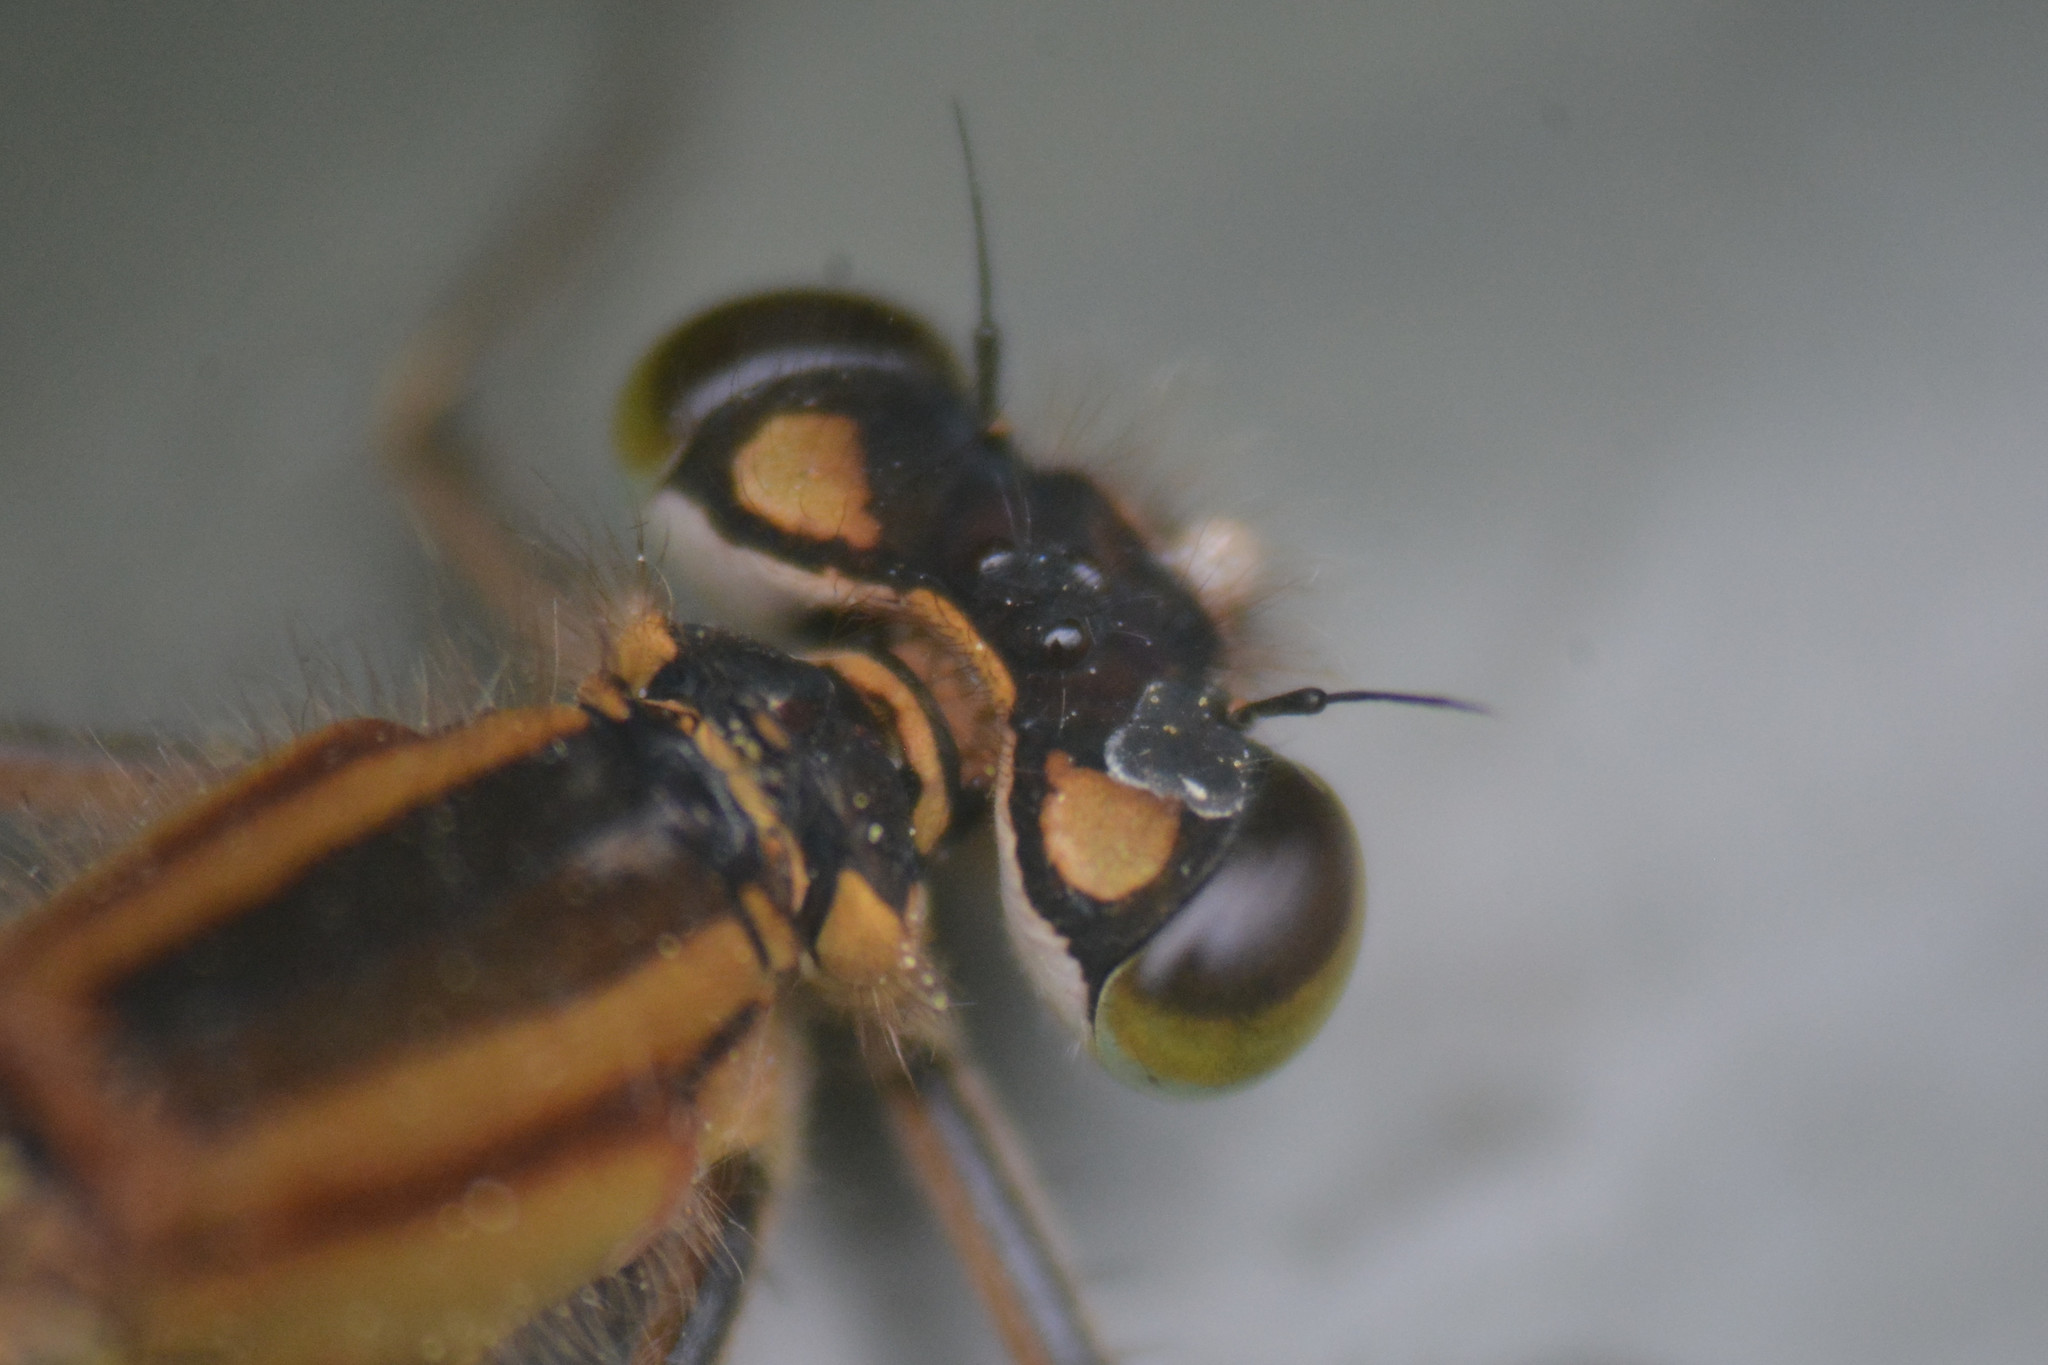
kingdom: Animalia
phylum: Arthropoda
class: Insecta
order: Odonata
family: Coenagrionidae
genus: Ischnura
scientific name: Ischnura elegans
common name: Blue-tailed damselfly
